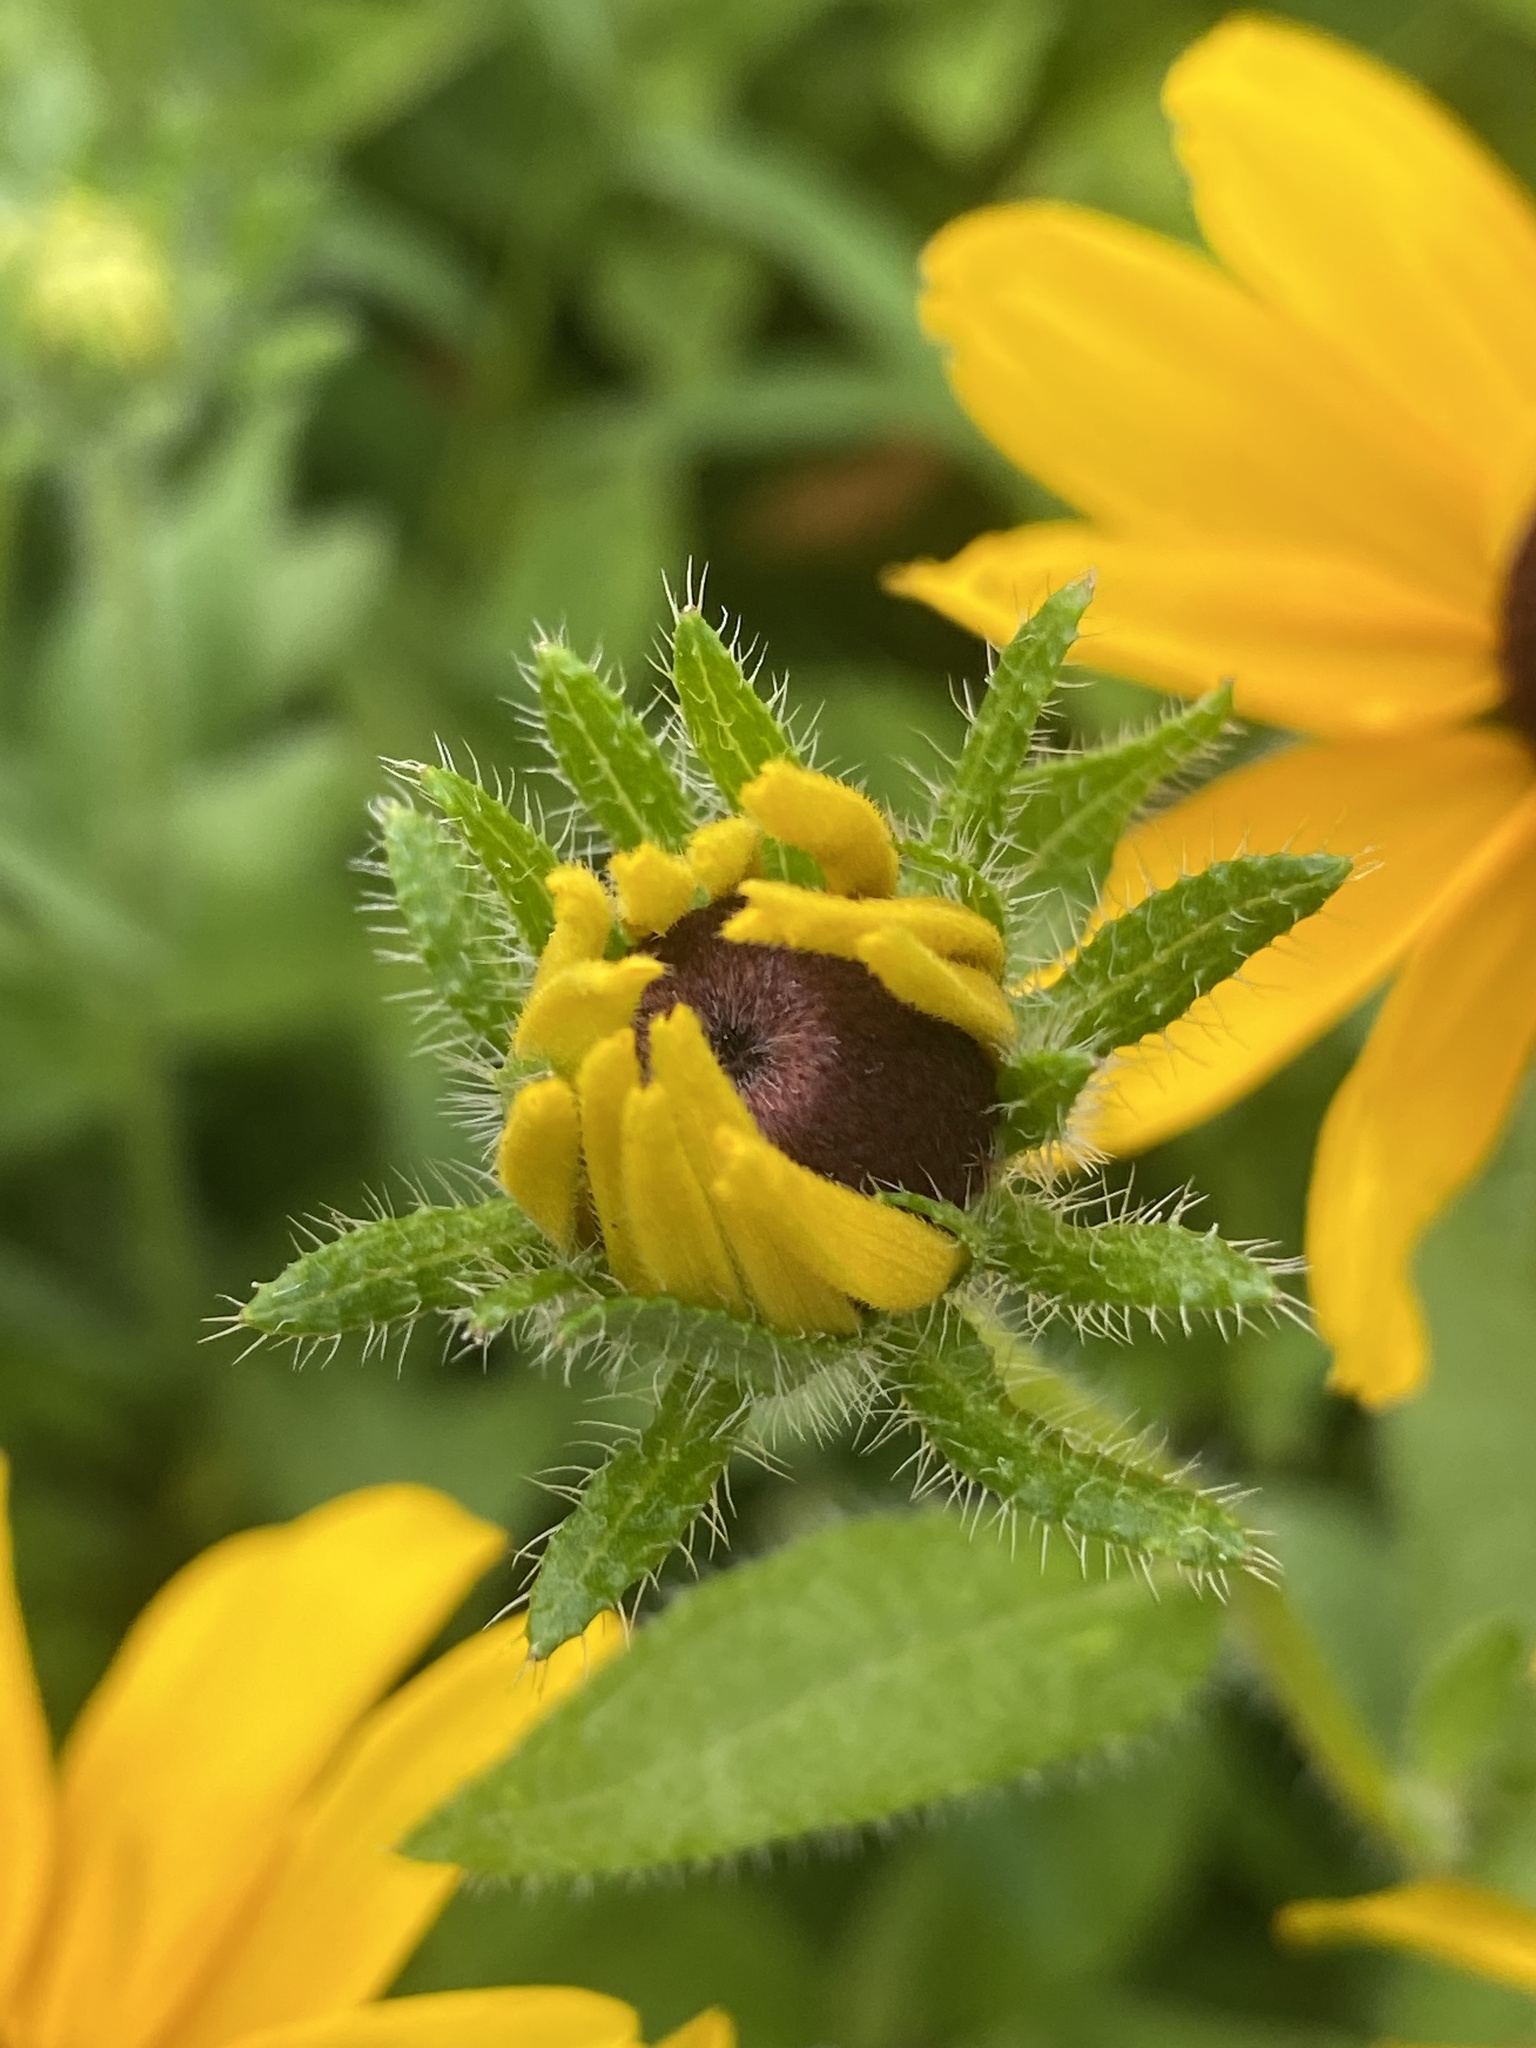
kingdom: Plantae
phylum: Tracheophyta
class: Magnoliopsida
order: Asterales
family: Asteraceae
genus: Rudbeckia
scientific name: Rudbeckia hirta
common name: Black-eyed-susan
